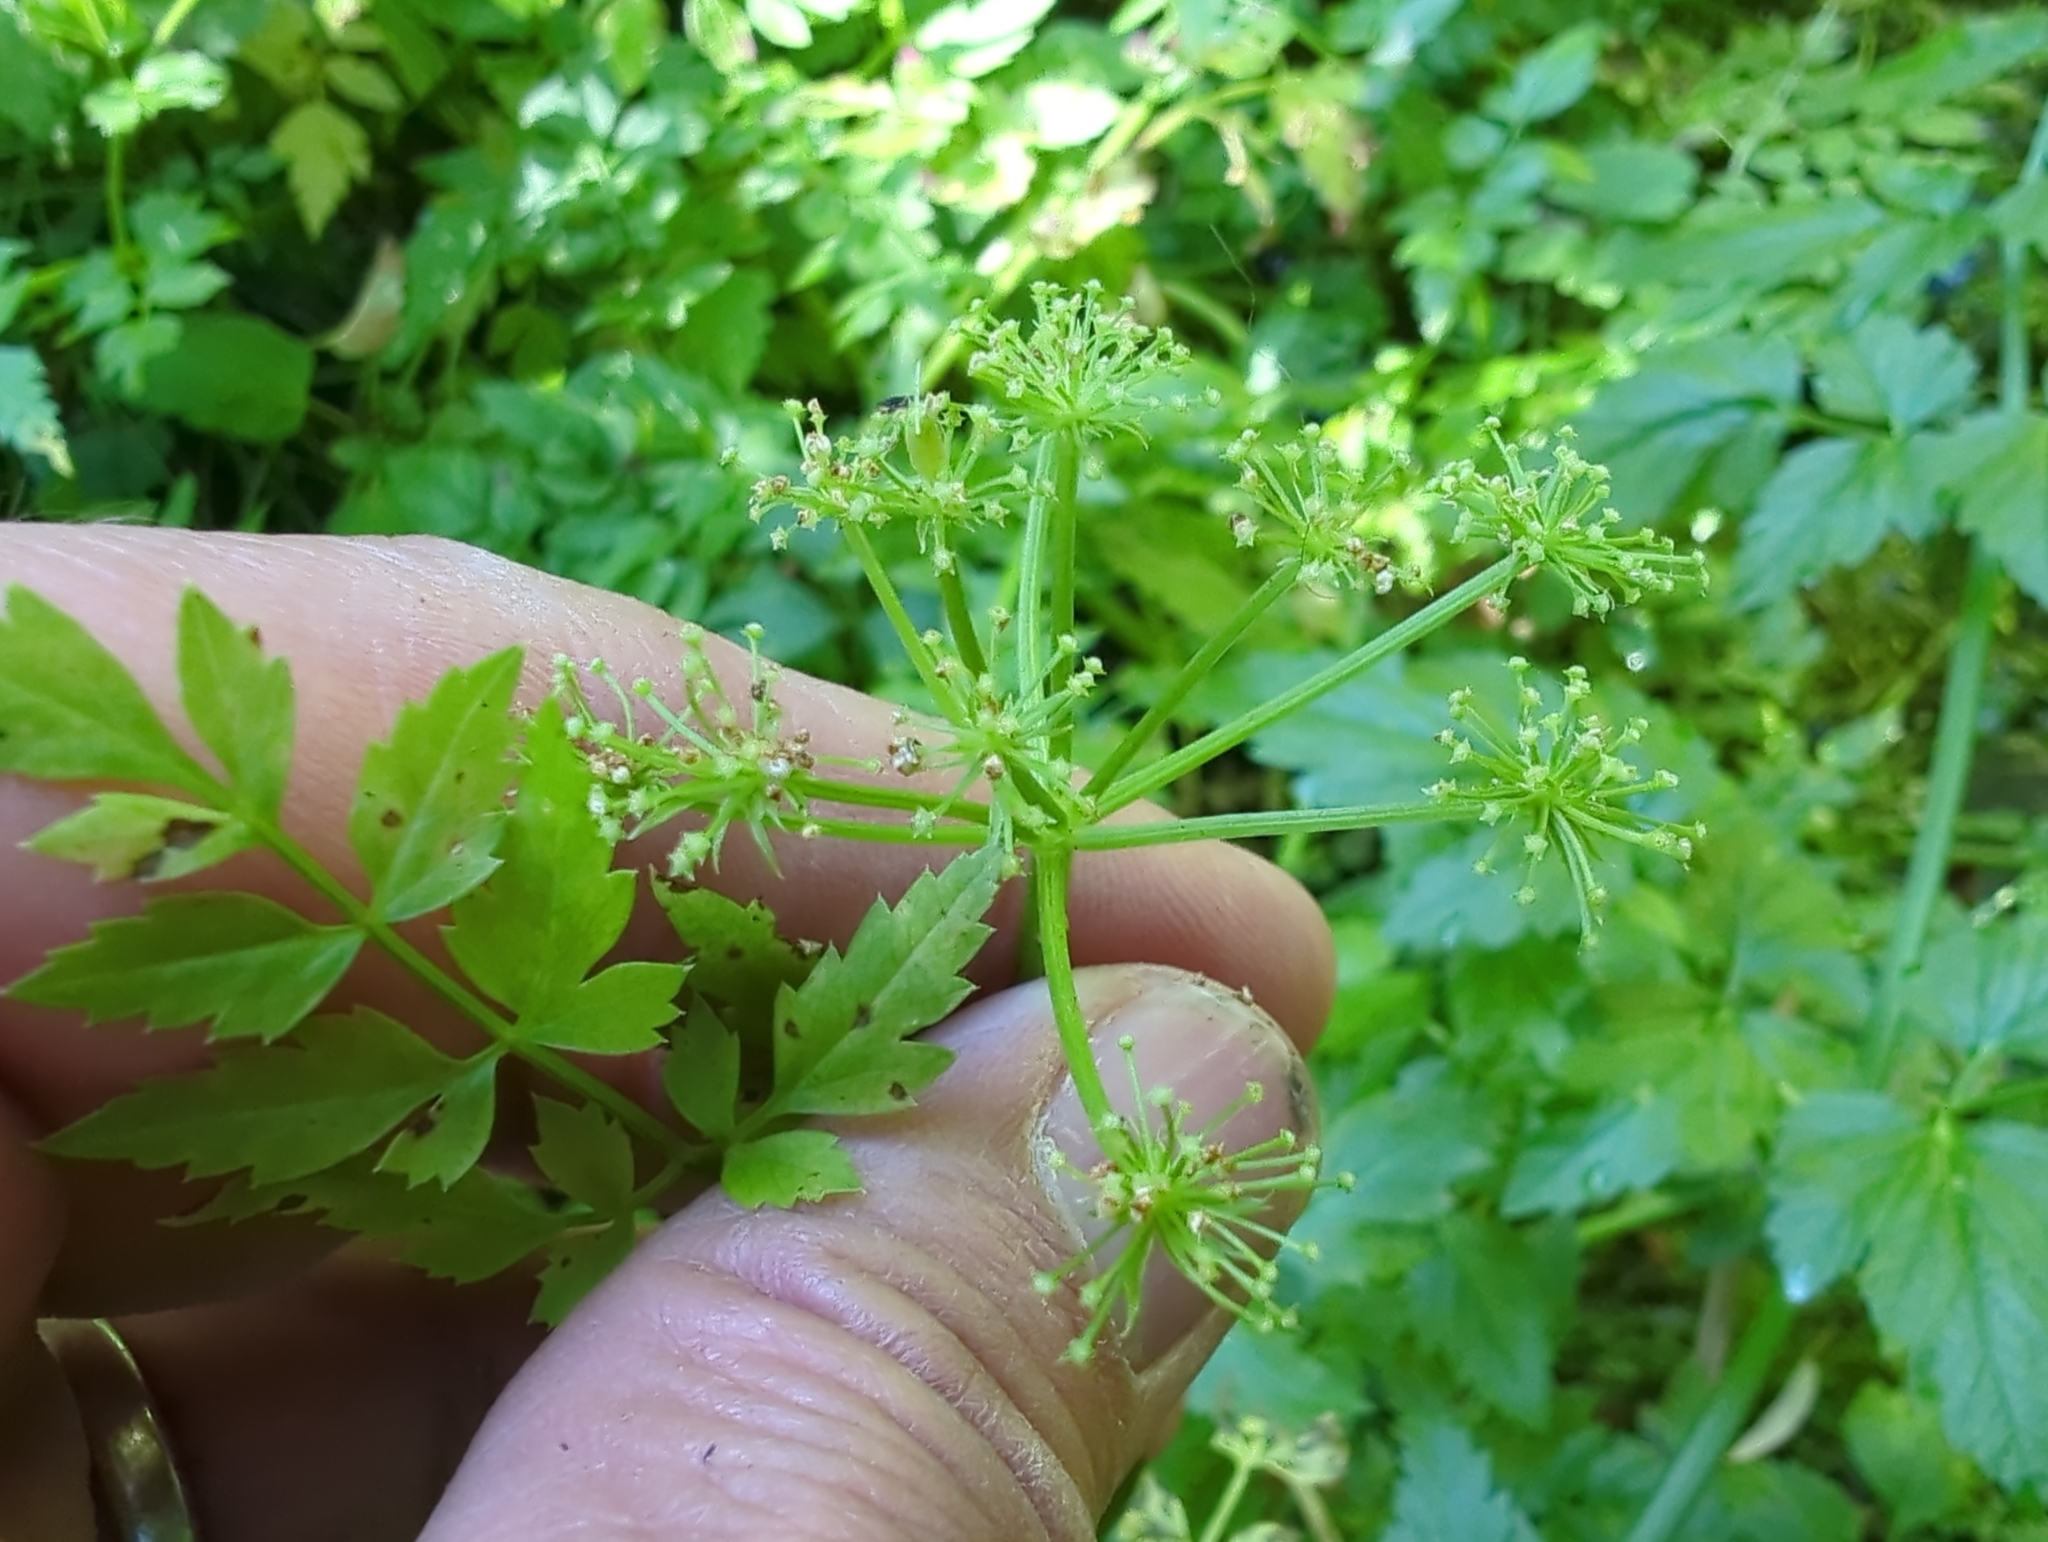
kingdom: Plantae
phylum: Tracheophyta
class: Magnoliopsida
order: Apiales
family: Apiaceae
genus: Oenanthe
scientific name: Oenanthe sarmentosa
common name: American water-parsley
